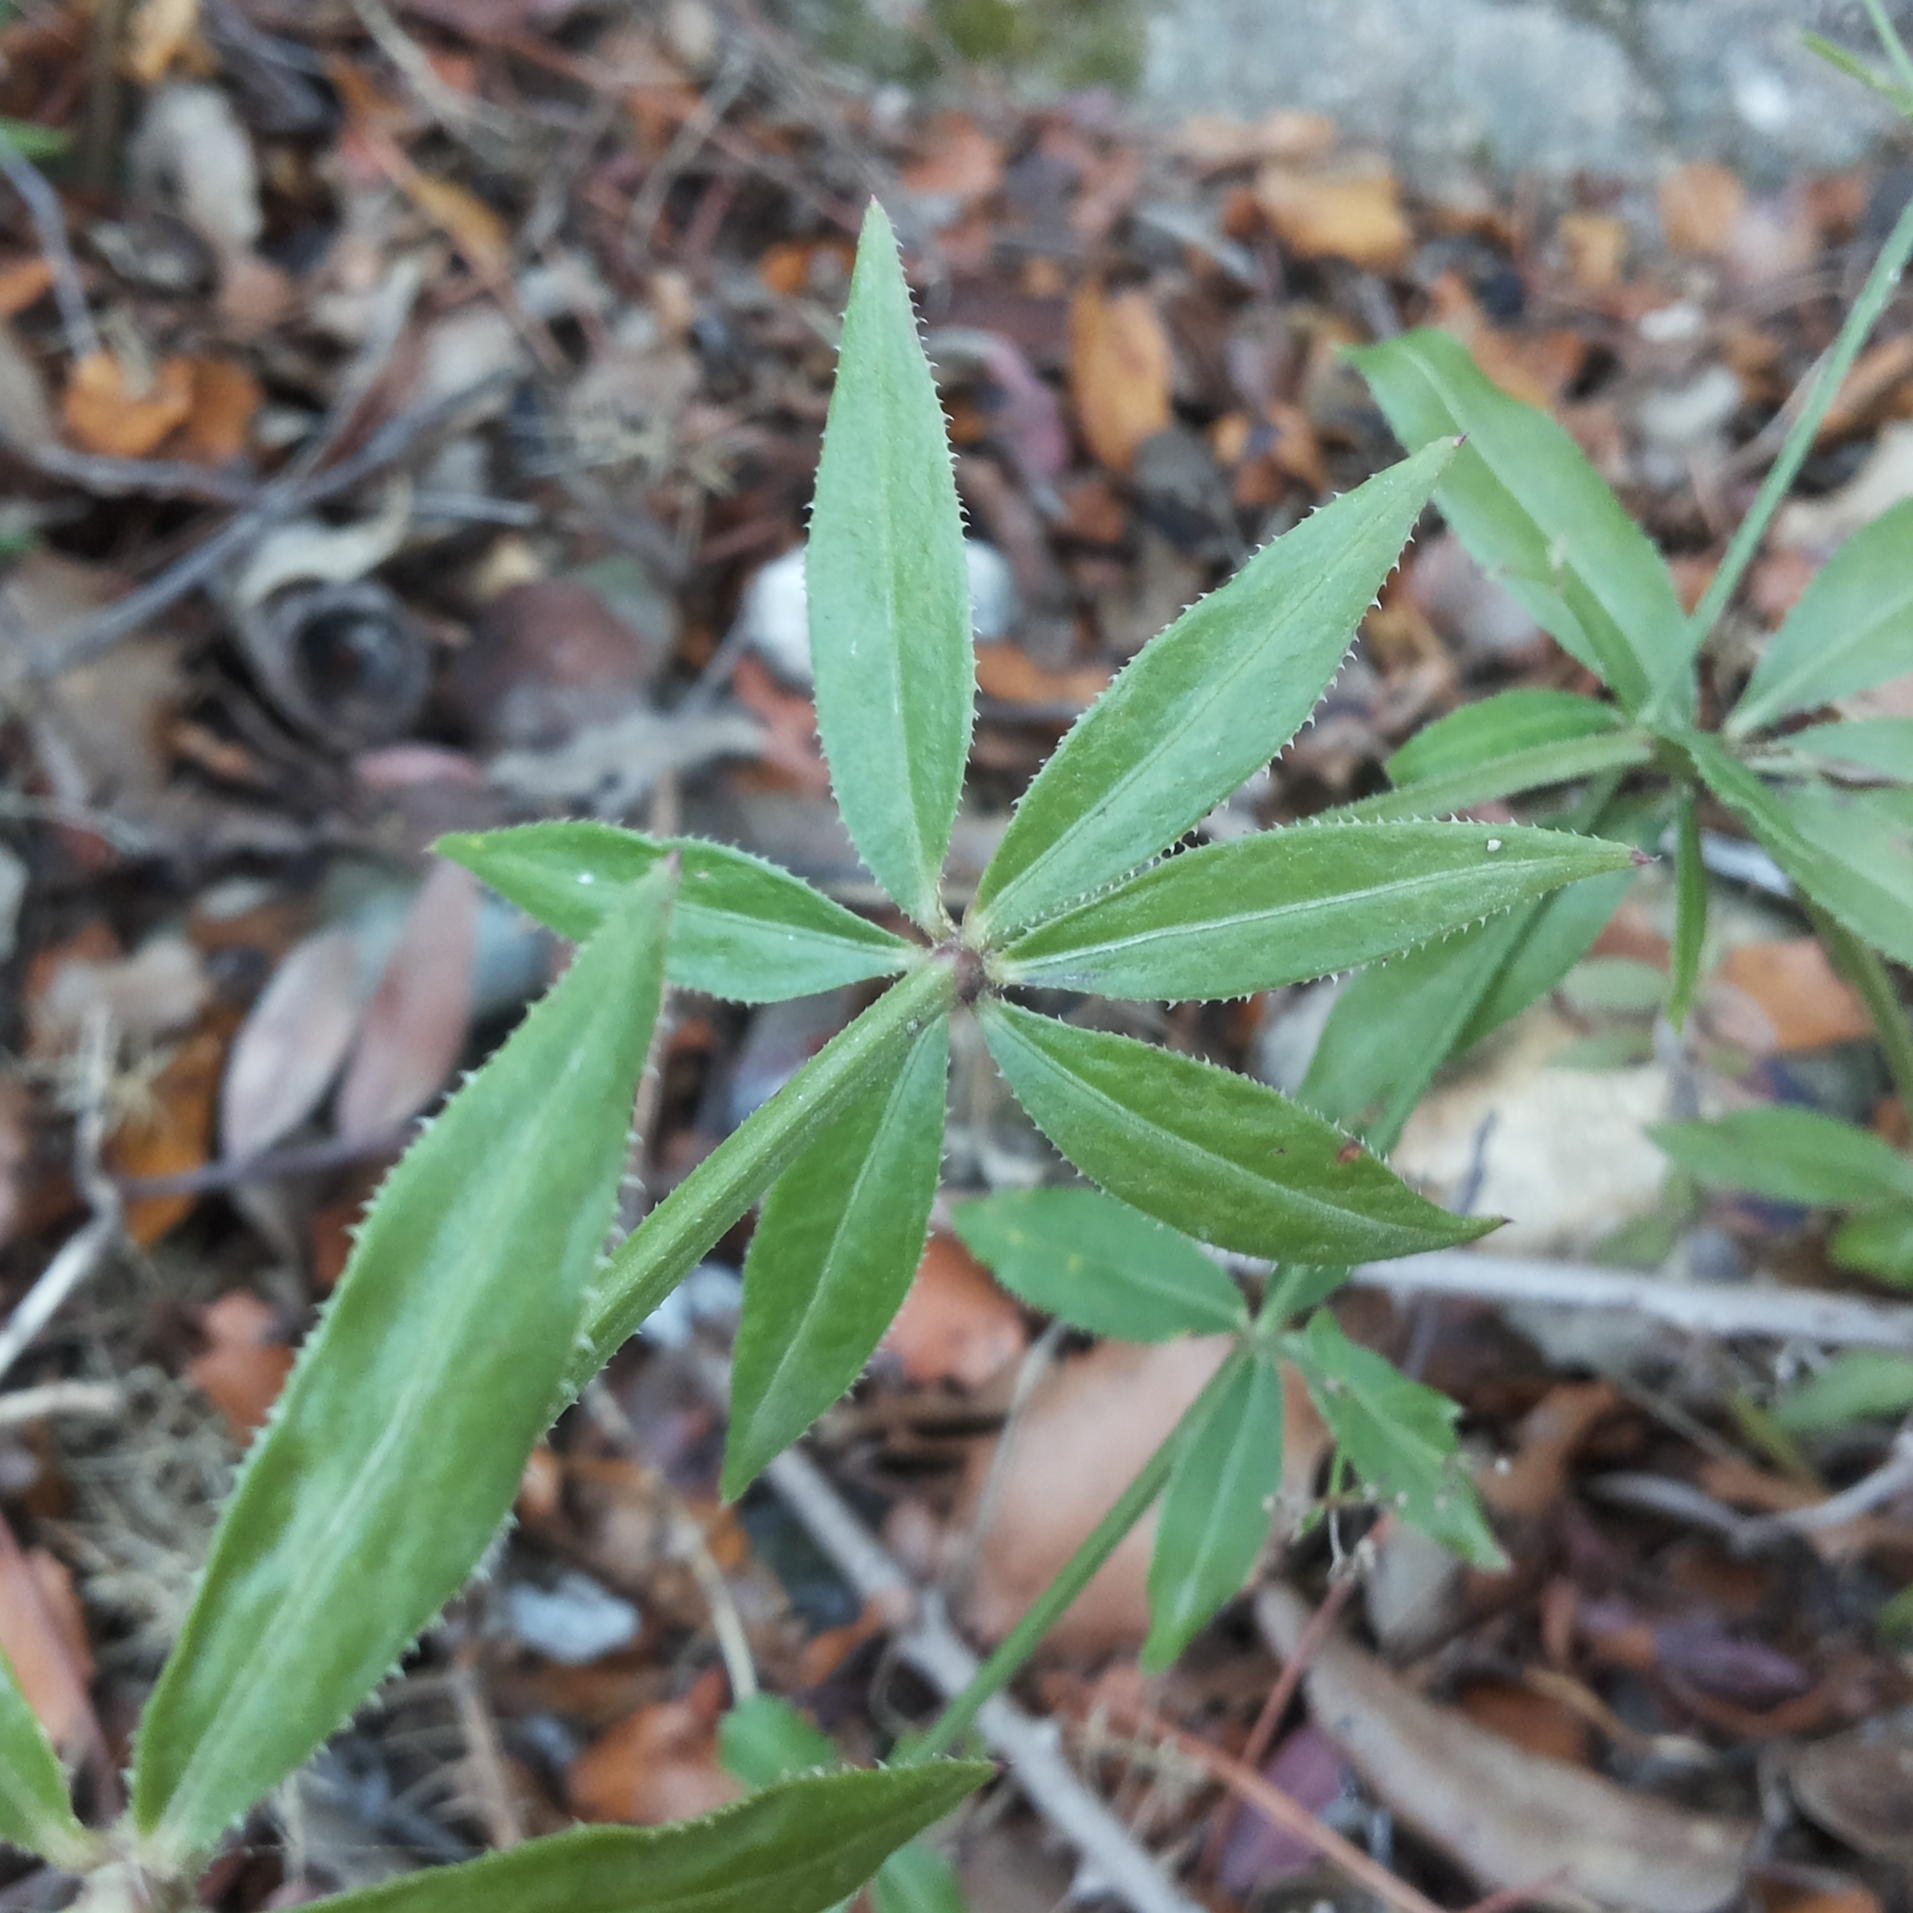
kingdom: Plantae
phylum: Tracheophyta
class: Magnoliopsida
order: Gentianales
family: Rubiaceae
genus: Rubia
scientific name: Rubia peregrina
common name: Wild madder
